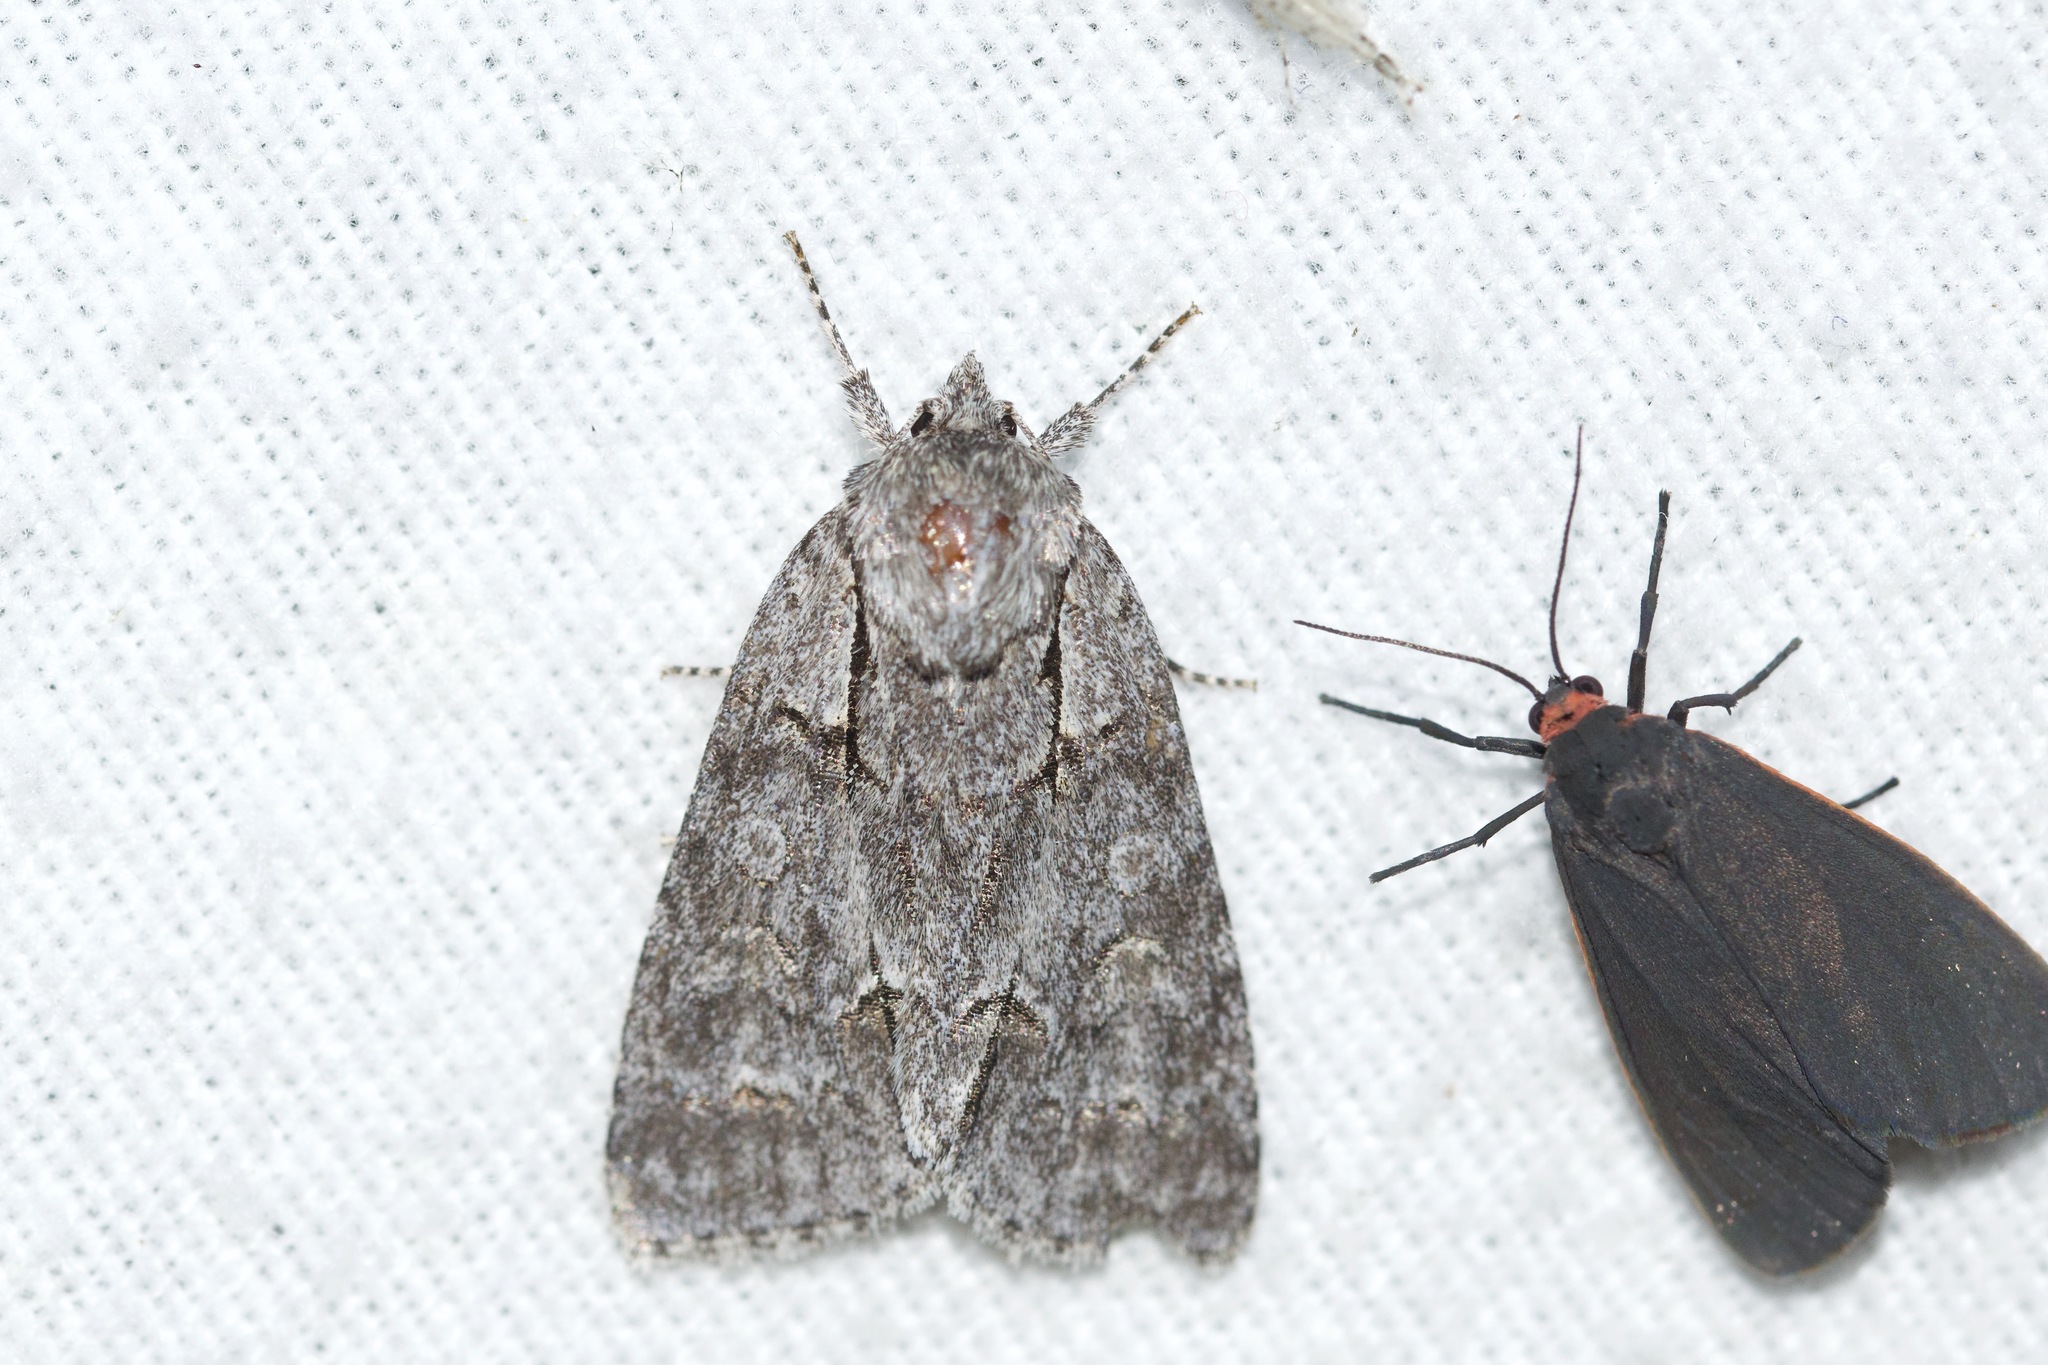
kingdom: Animalia
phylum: Arthropoda
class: Insecta
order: Lepidoptera
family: Noctuidae
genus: Acronicta
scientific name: Acronicta grisea
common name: Gray dagger
